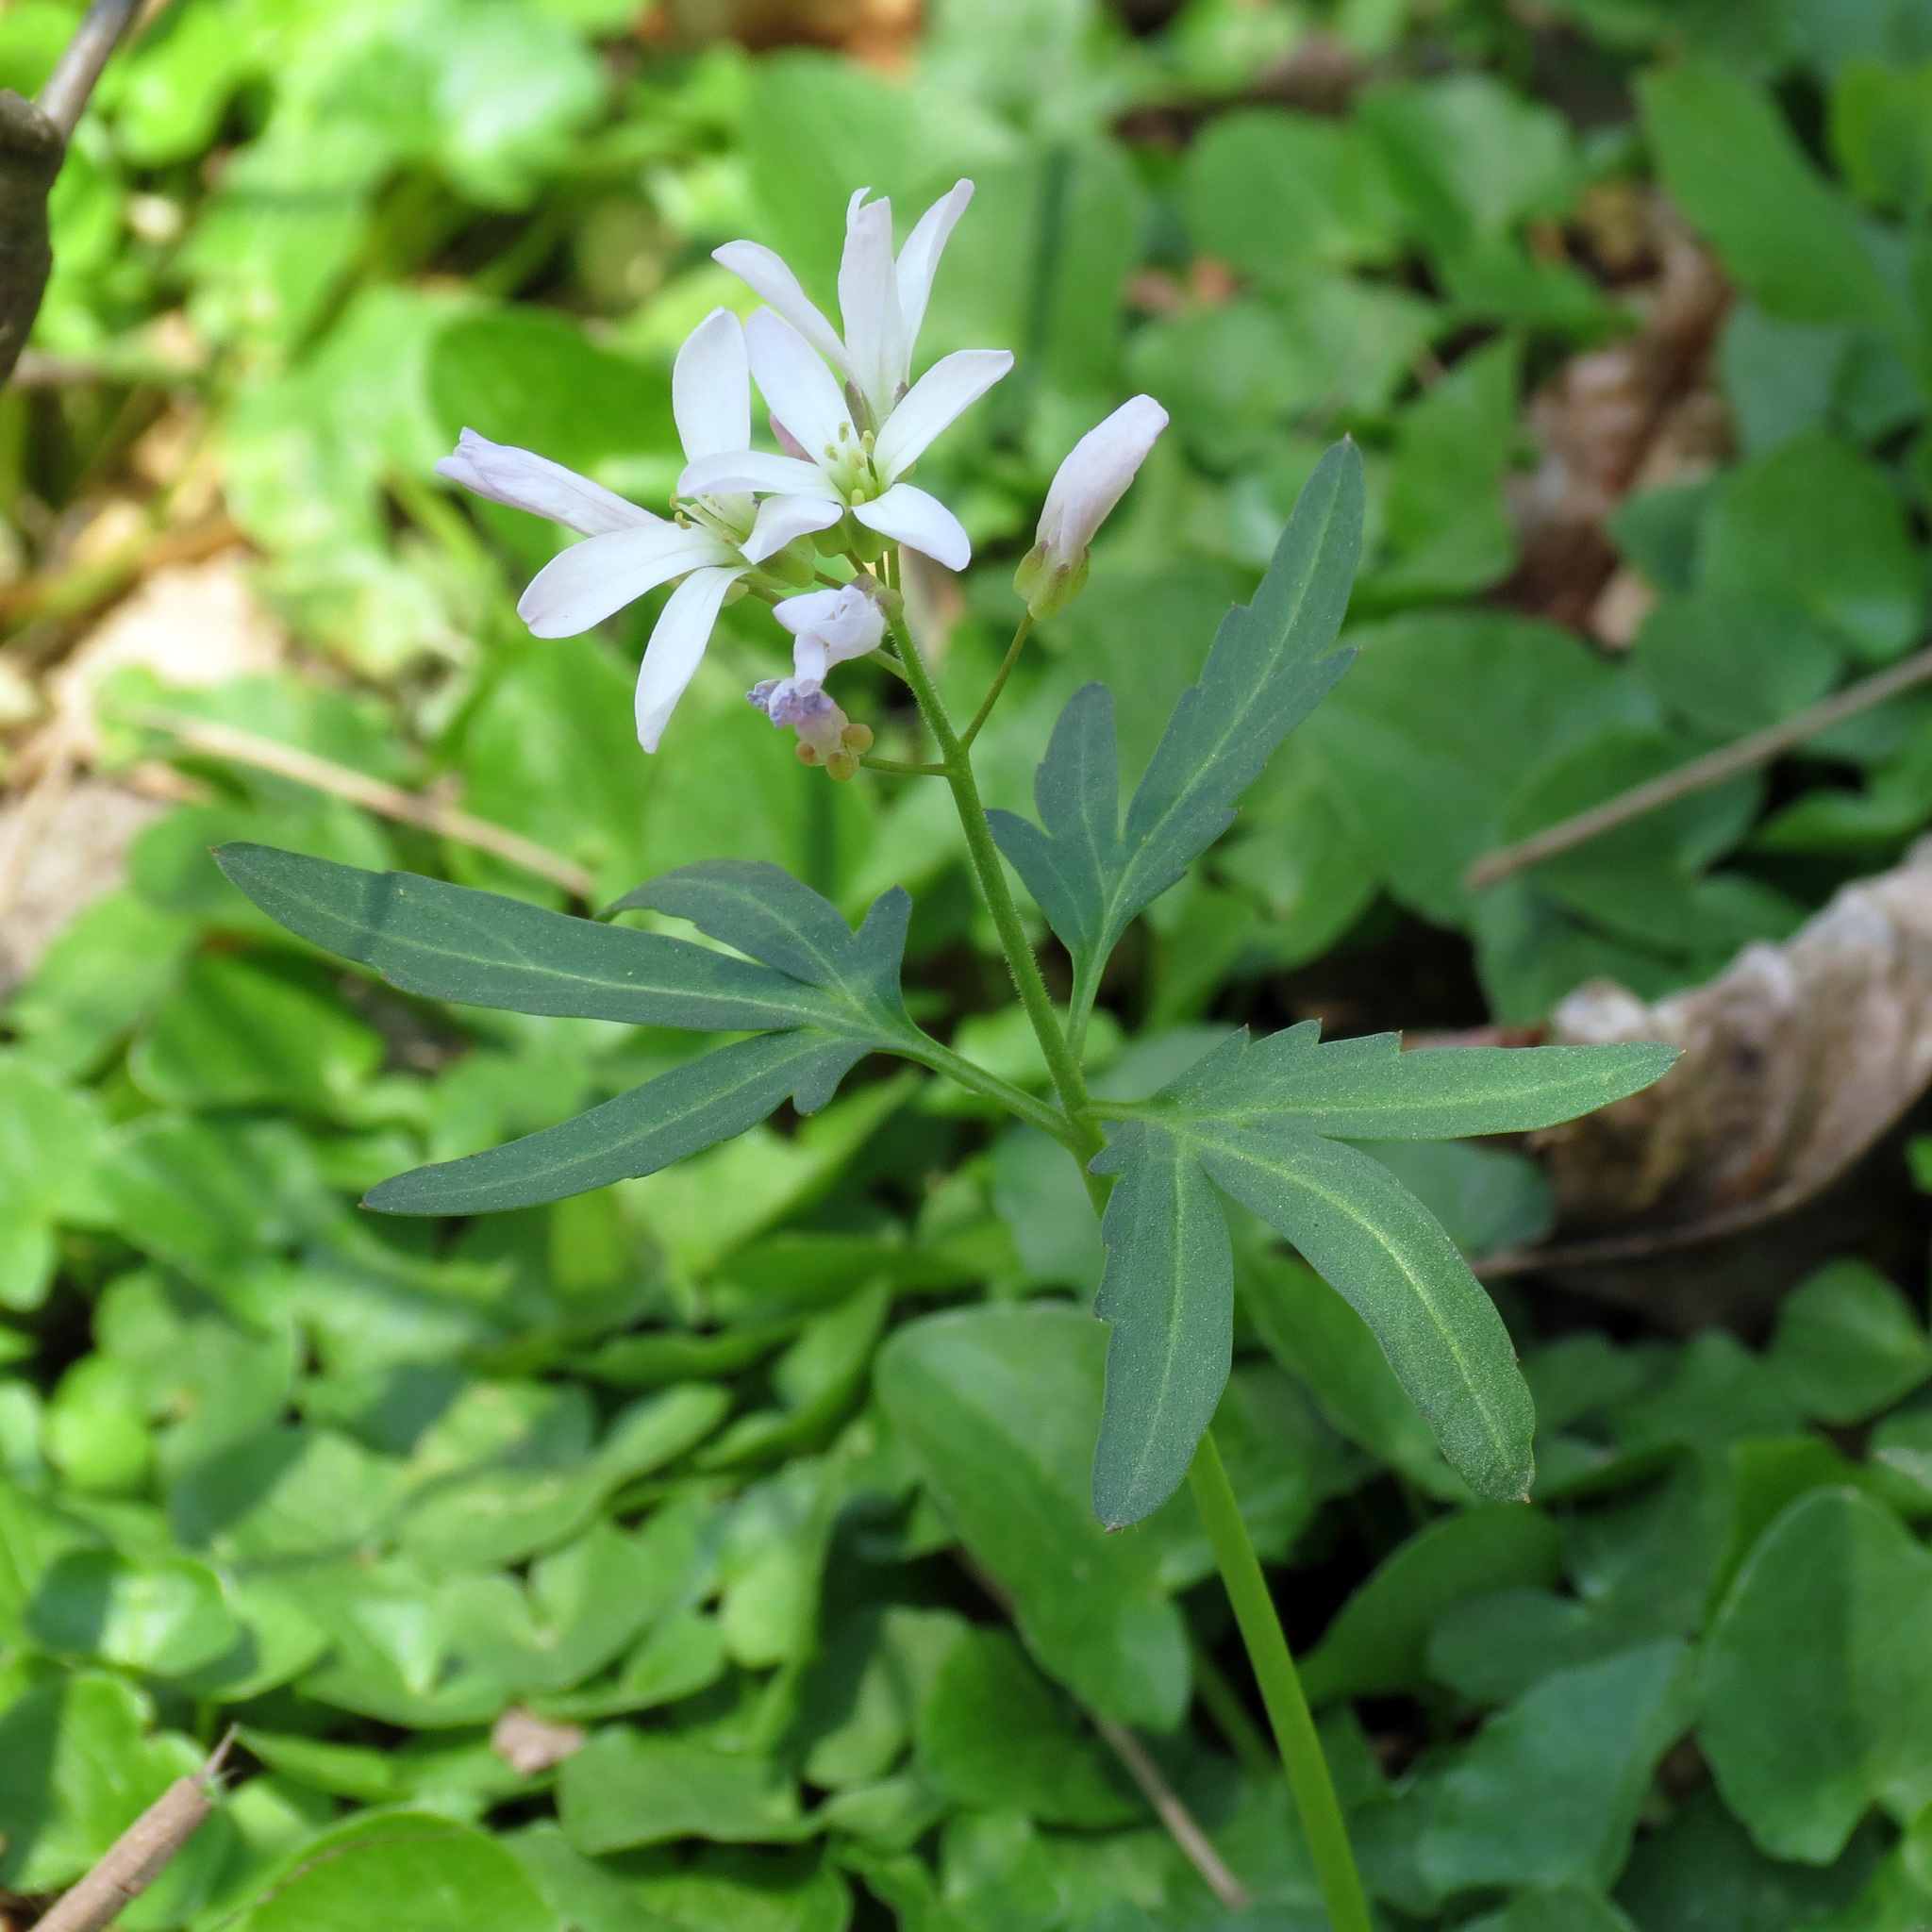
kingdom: Plantae
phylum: Tracheophyta
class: Magnoliopsida
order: Brassicales
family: Brassicaceae
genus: Cardamine
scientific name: Cardamine concatenata
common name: Cut-leaf toothcup
